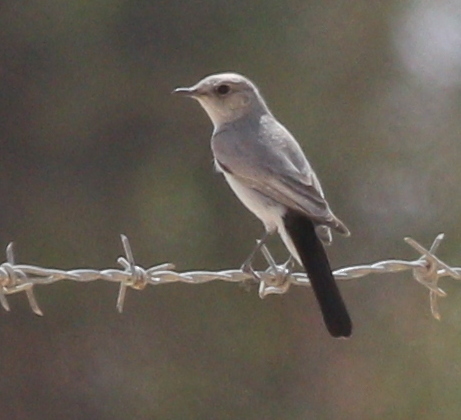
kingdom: Animalia
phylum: Chordata
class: Aves
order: Passeriformes
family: Muscicapidae
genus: Oenanthe
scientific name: Oenanthe melanura
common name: Blackstart
